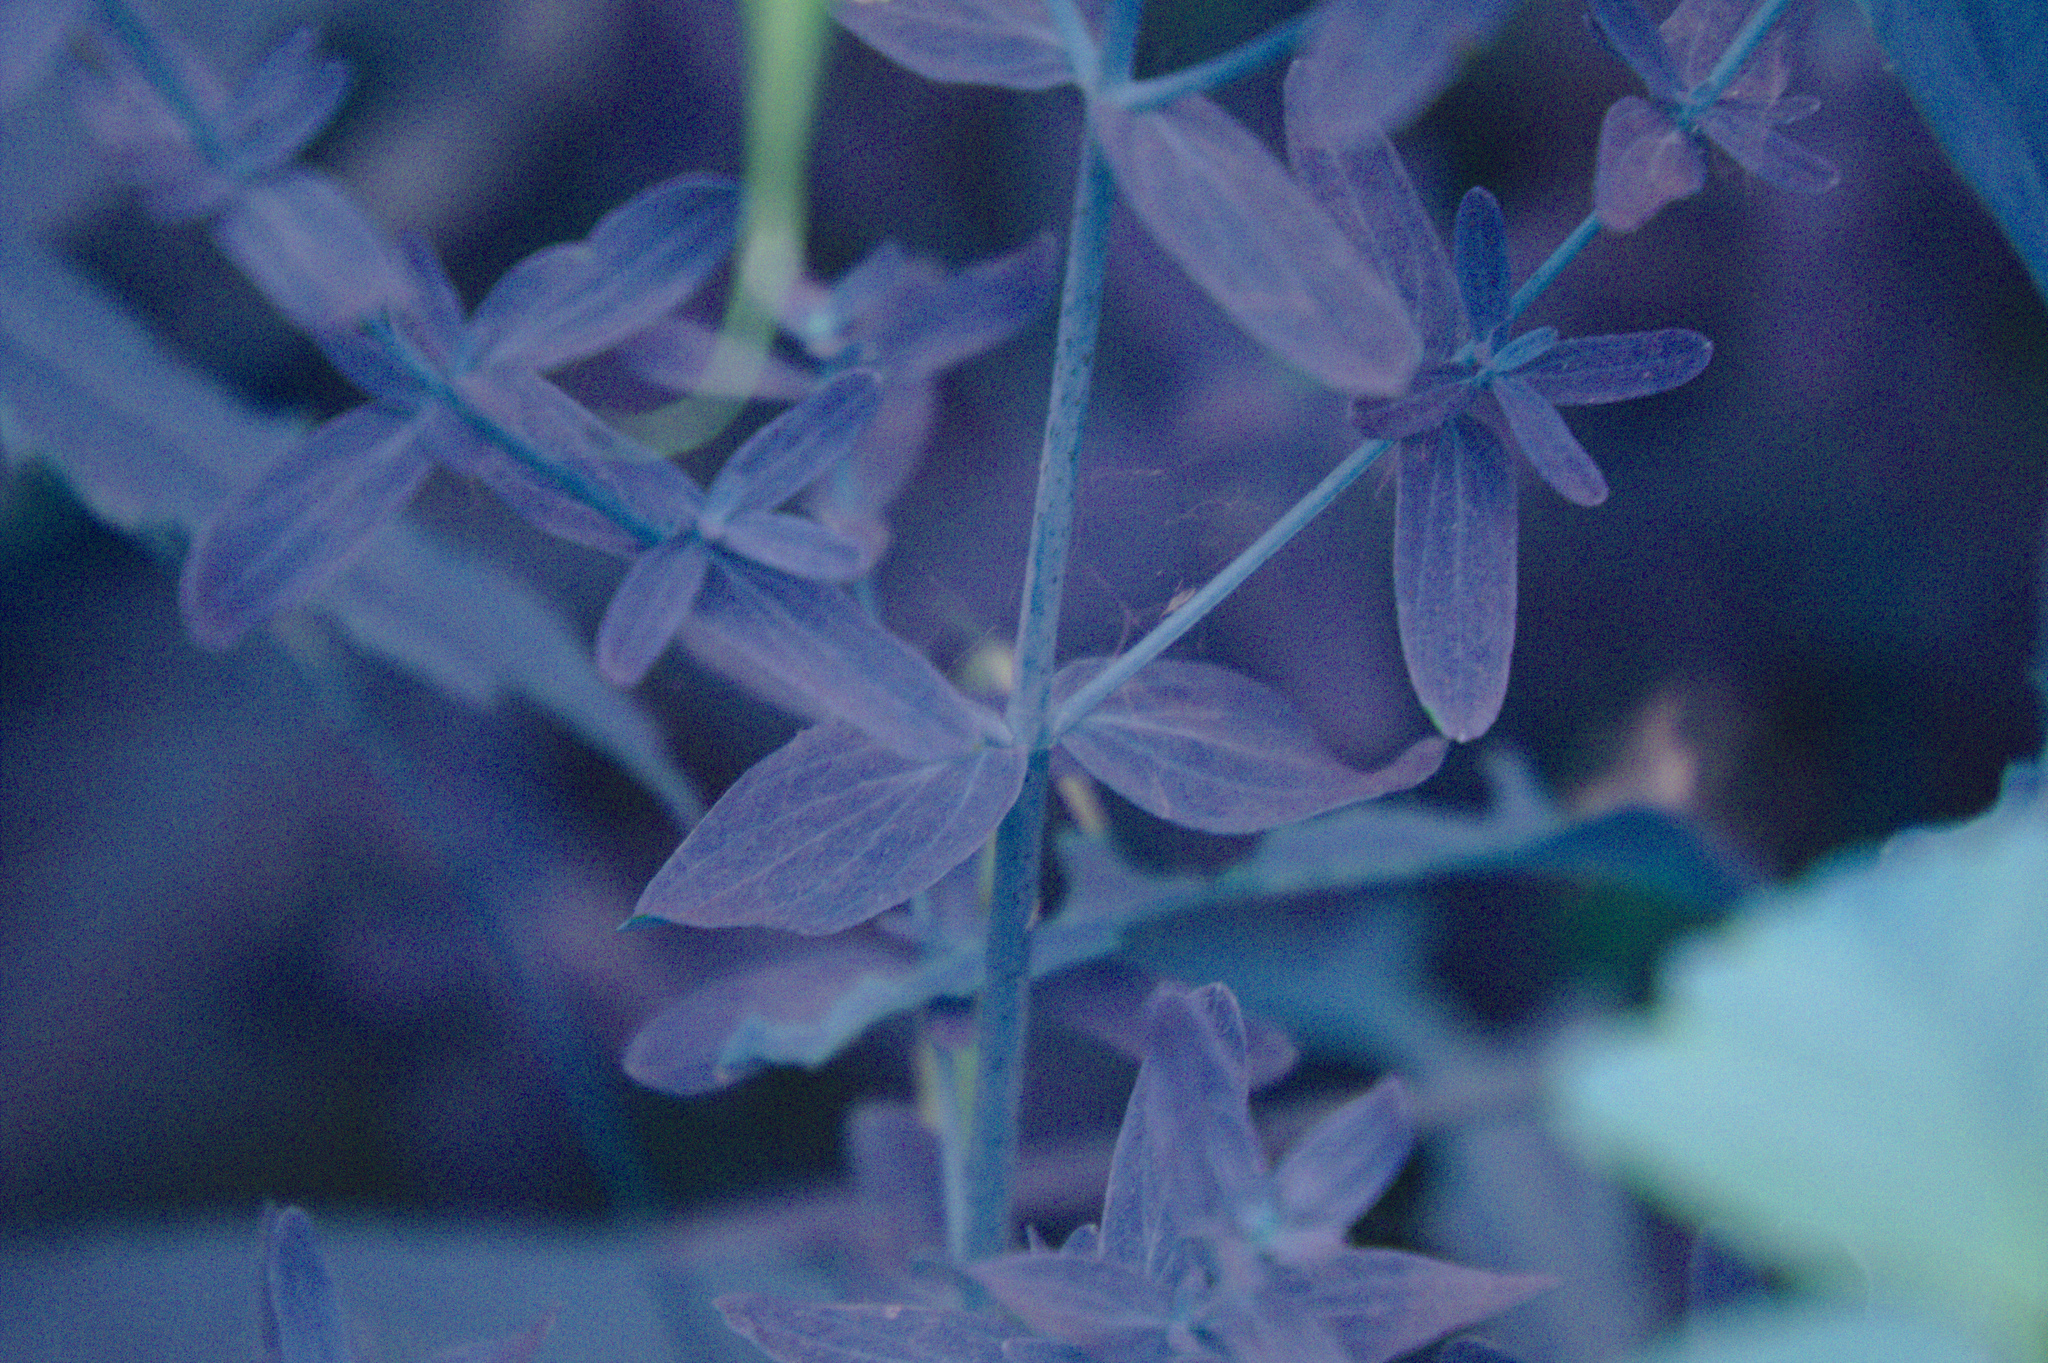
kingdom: Plantae
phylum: Tracheophyta
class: Magnoliopsida
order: Malpighiales
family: Hypericaceae
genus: Hypericum
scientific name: Hypericum perforatum
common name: Common st. johnswort
